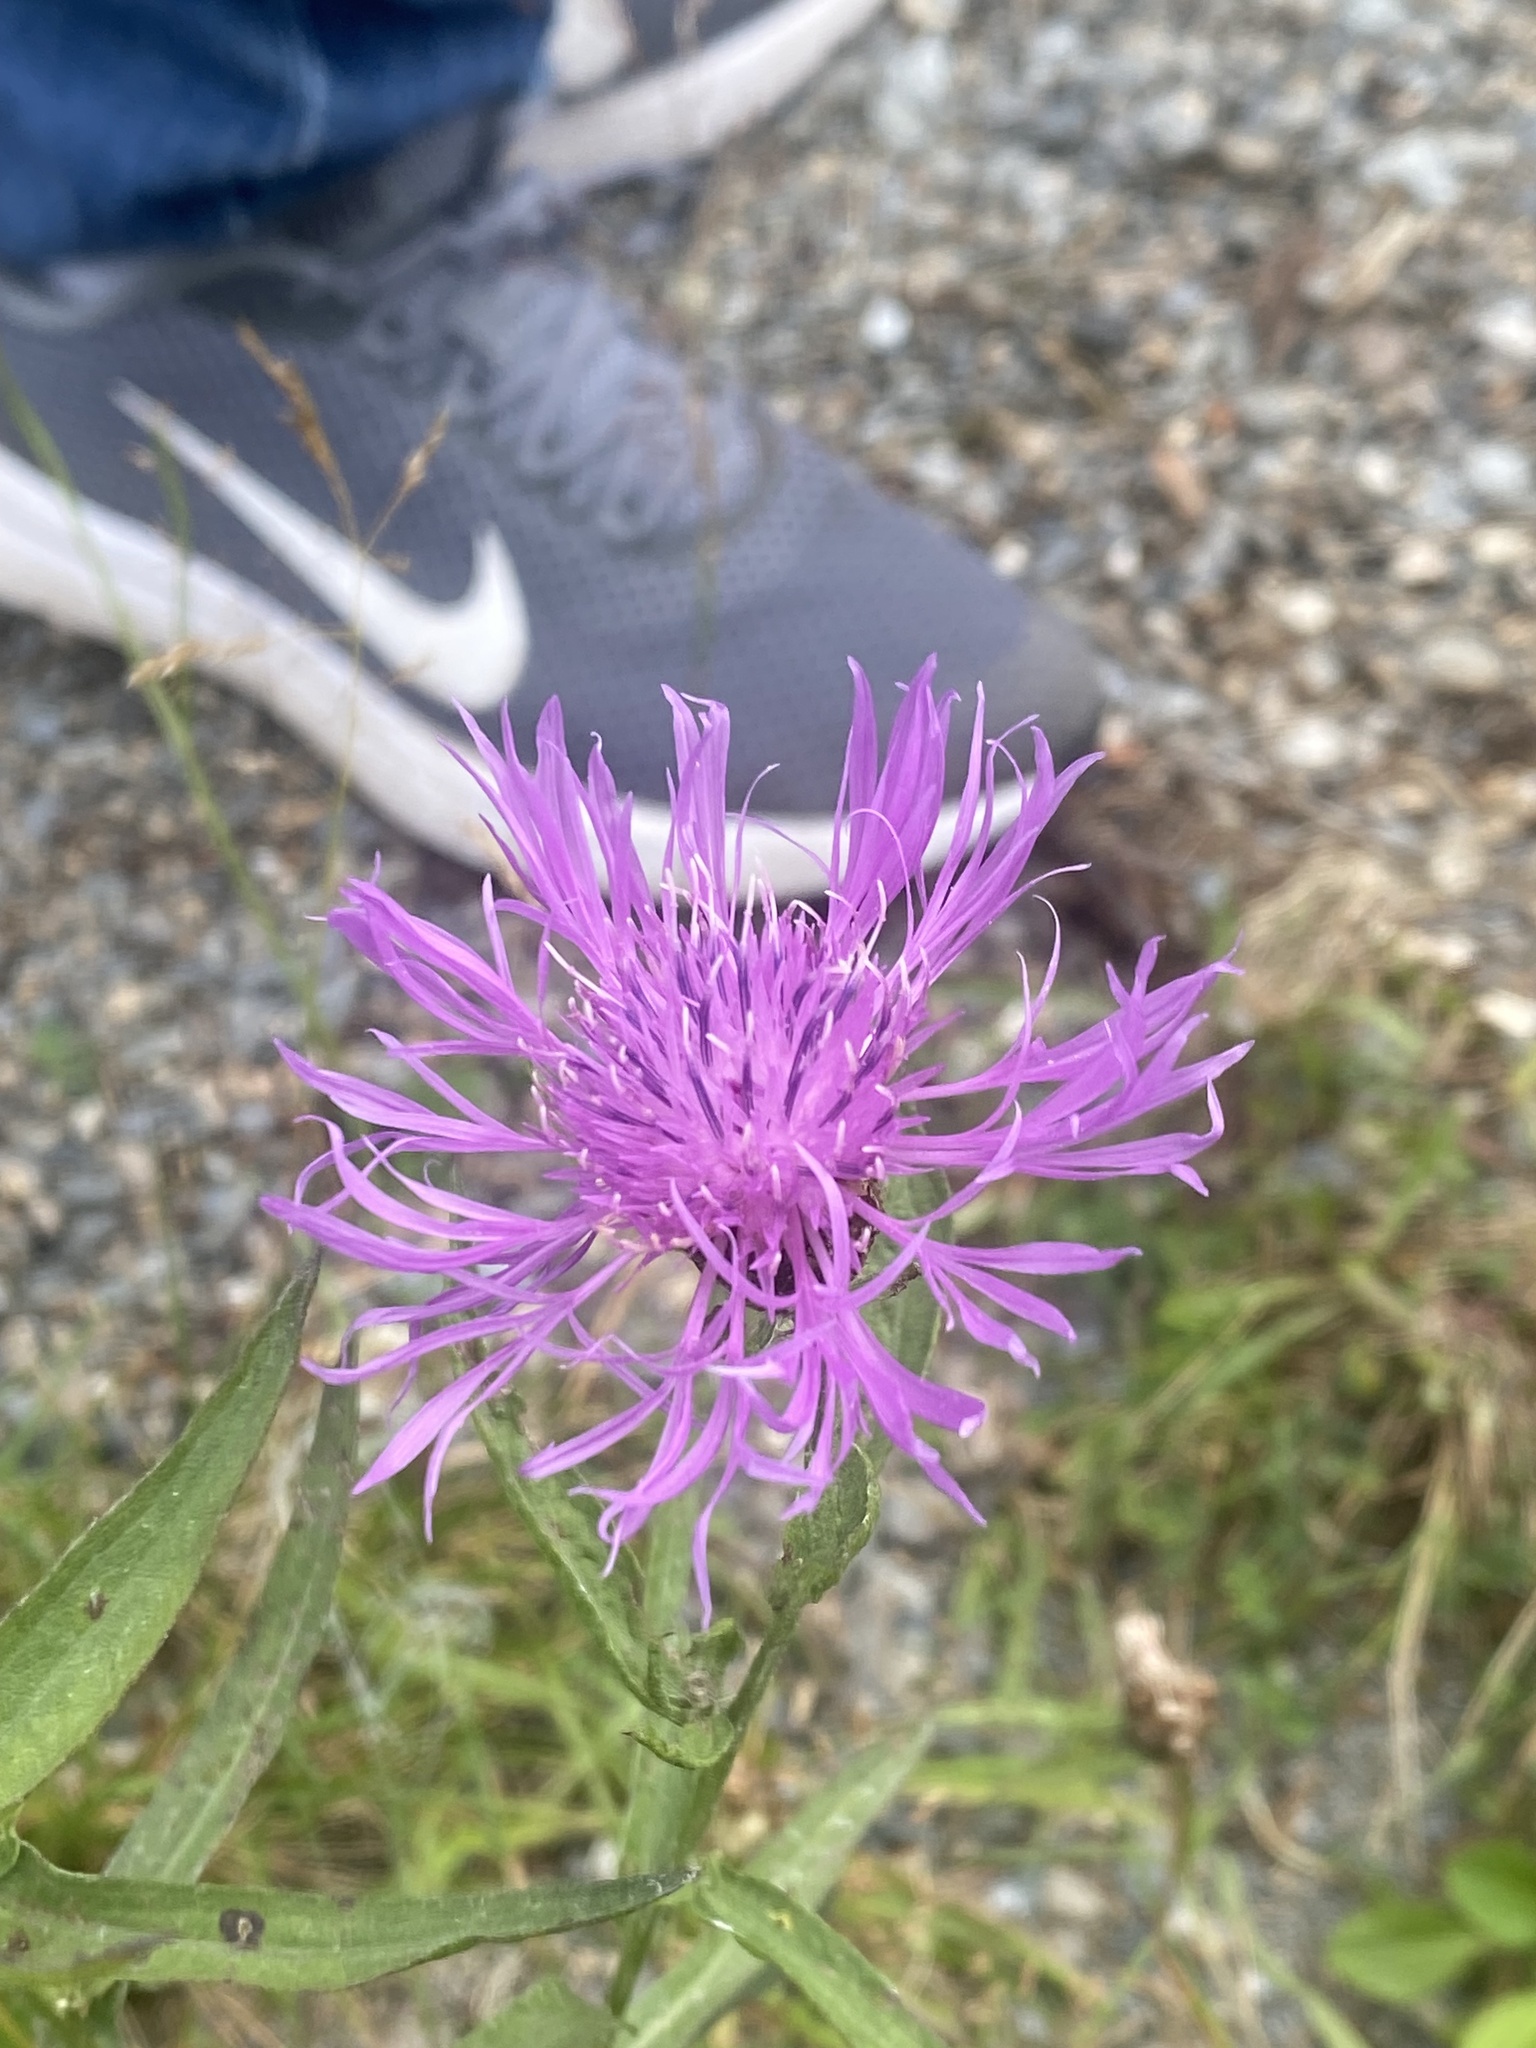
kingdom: Plantae
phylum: Tracheophyta
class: Magnoliopsida
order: Asterales
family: Asteraceae
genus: Centaurea
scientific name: Centaurea jacea
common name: Brown knapweed
